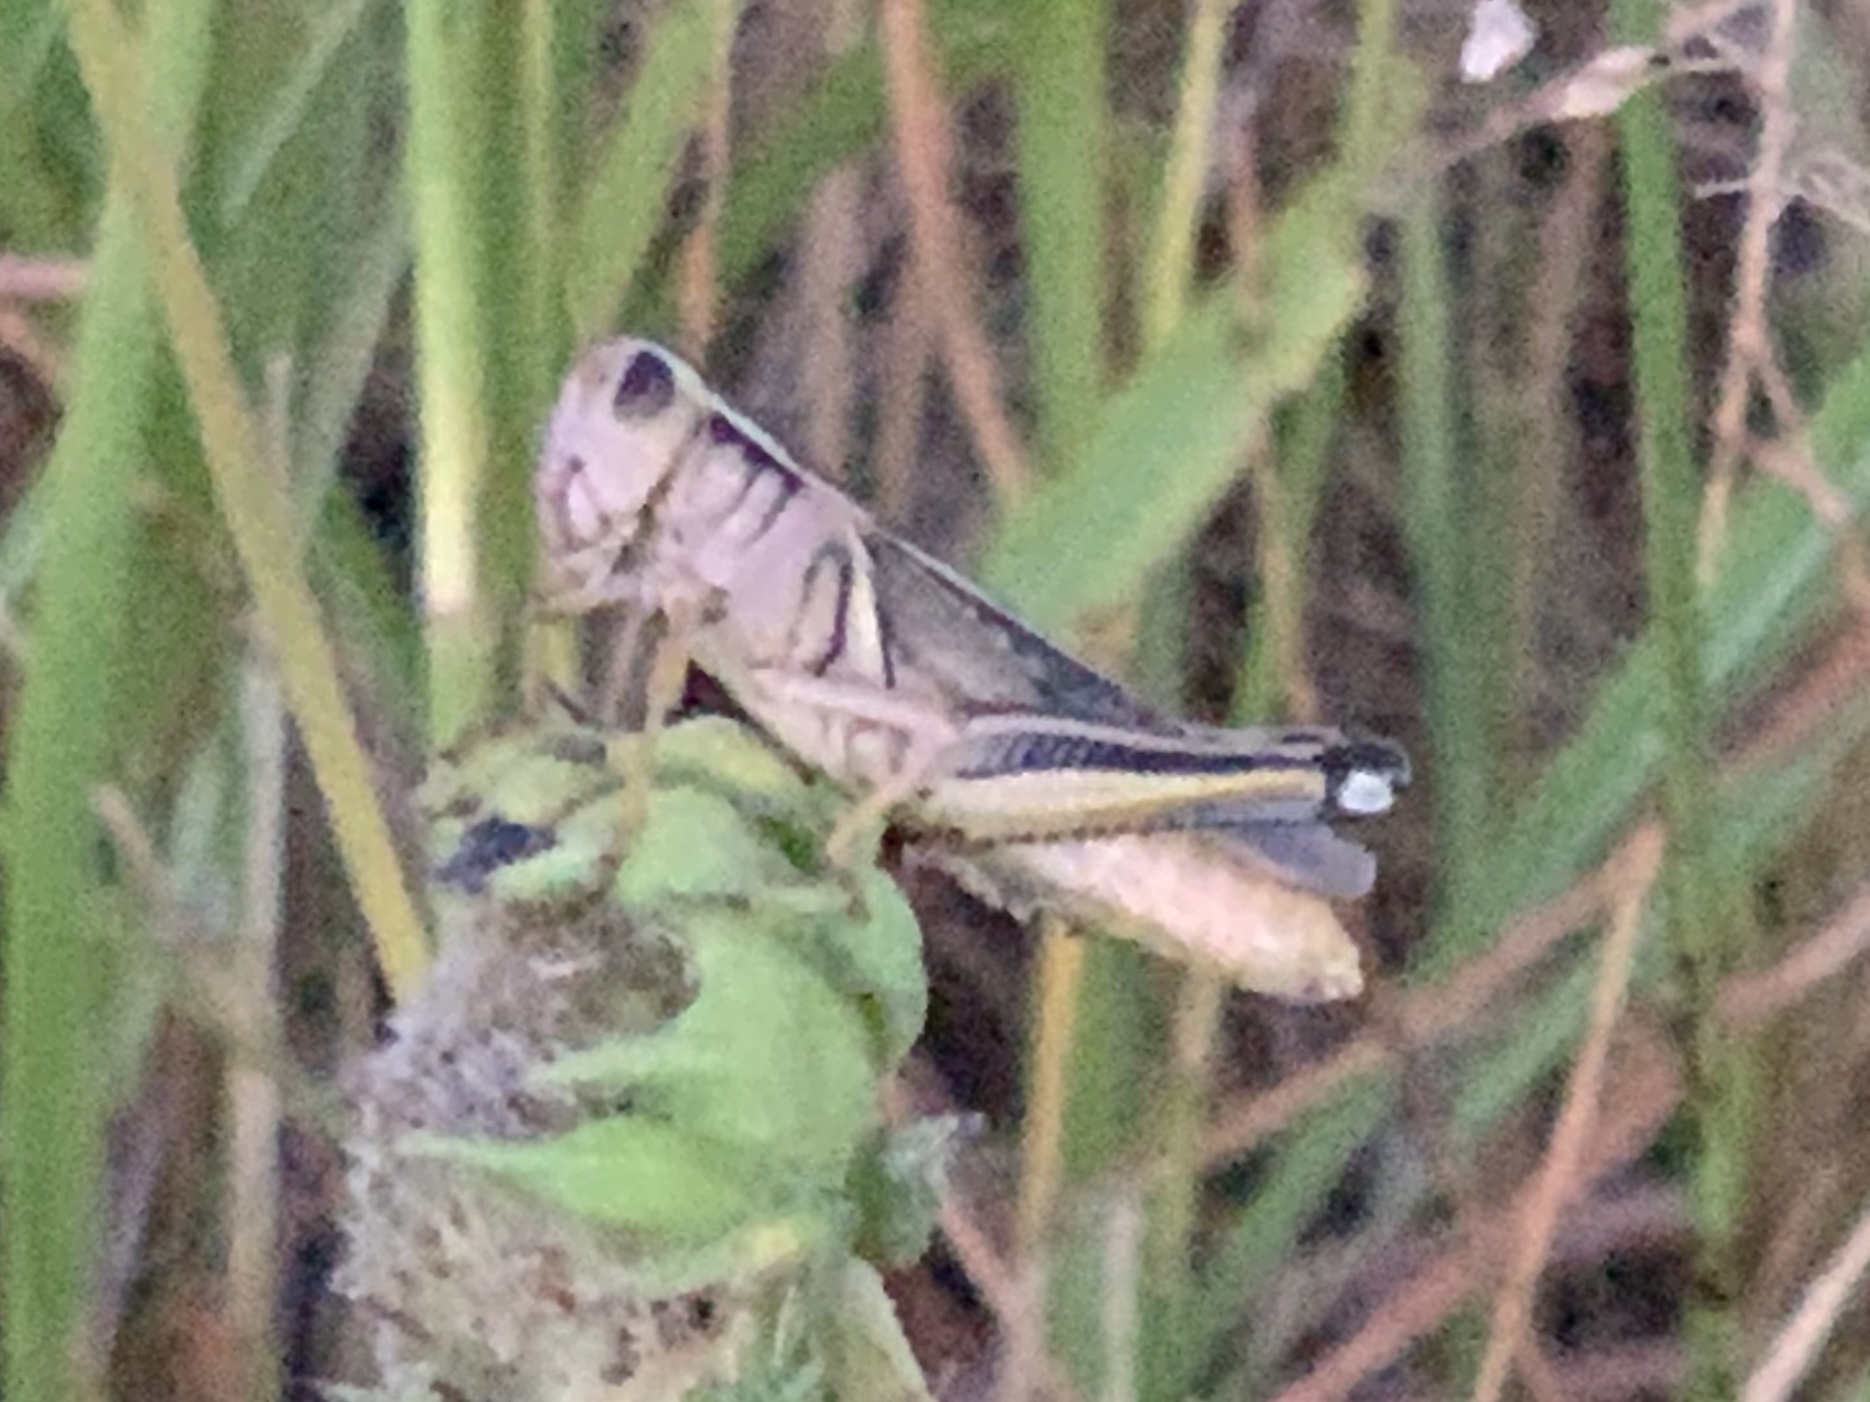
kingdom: Animalia
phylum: Arthropoda
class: Insecta
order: Orthoptera
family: Acrididae
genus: Melanoplus
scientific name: Melanoplus bivittatus
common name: Two-striped grasshopper
